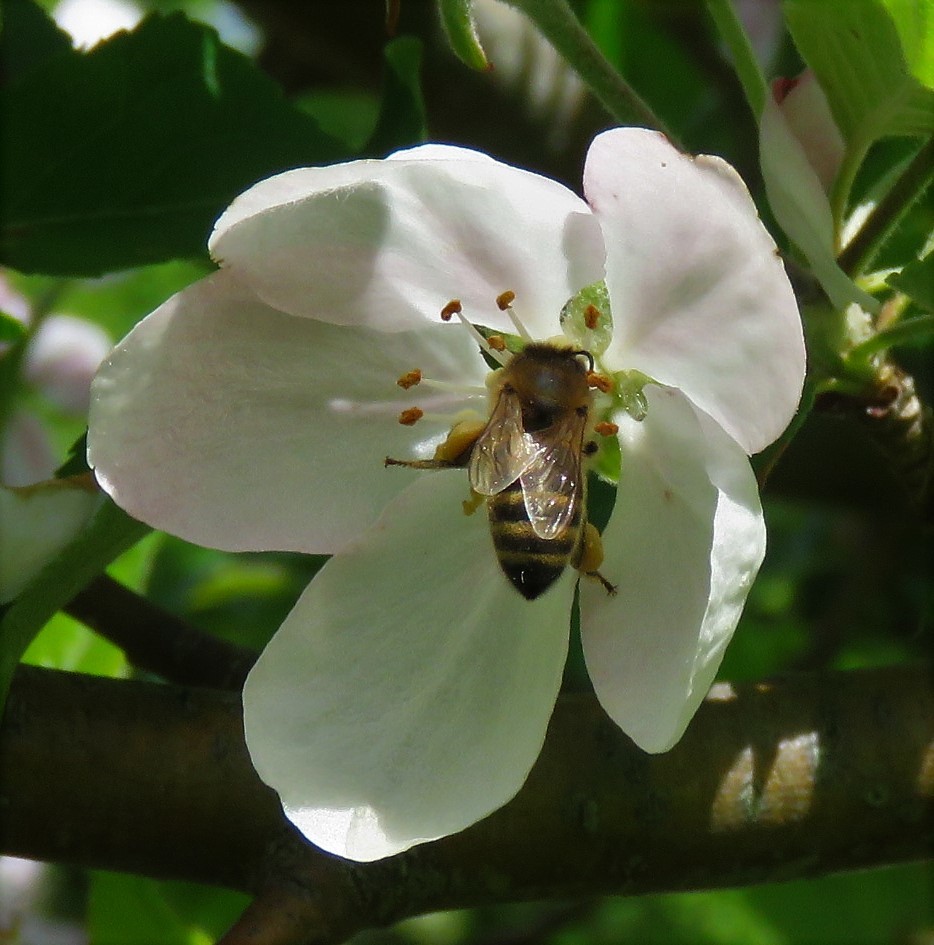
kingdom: Animalia
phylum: Arthropoda
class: Insecta
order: Hymenoptera
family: Apidae
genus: Apis
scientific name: Apis mellifera
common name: Honey bee
